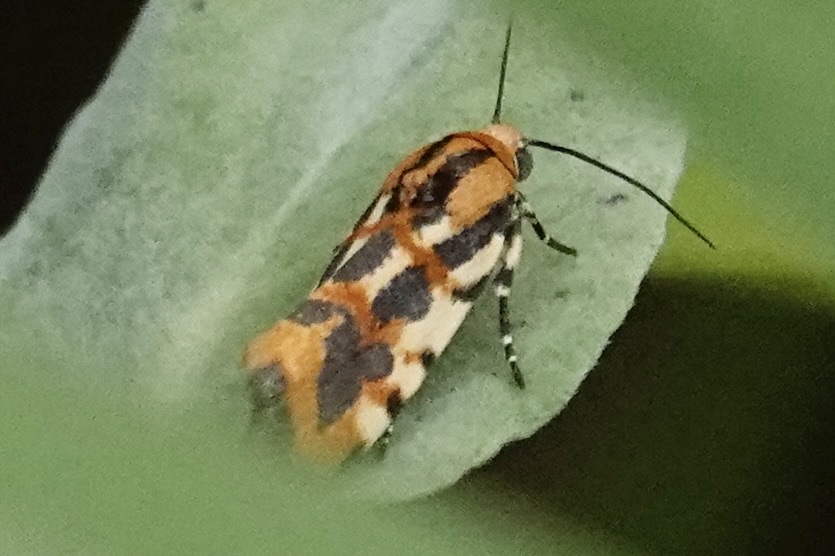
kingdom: Animalia
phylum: Arthropoda
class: Insecta
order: Lepidoptera
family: Noctuidae
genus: Acontia
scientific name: Acontia leo
